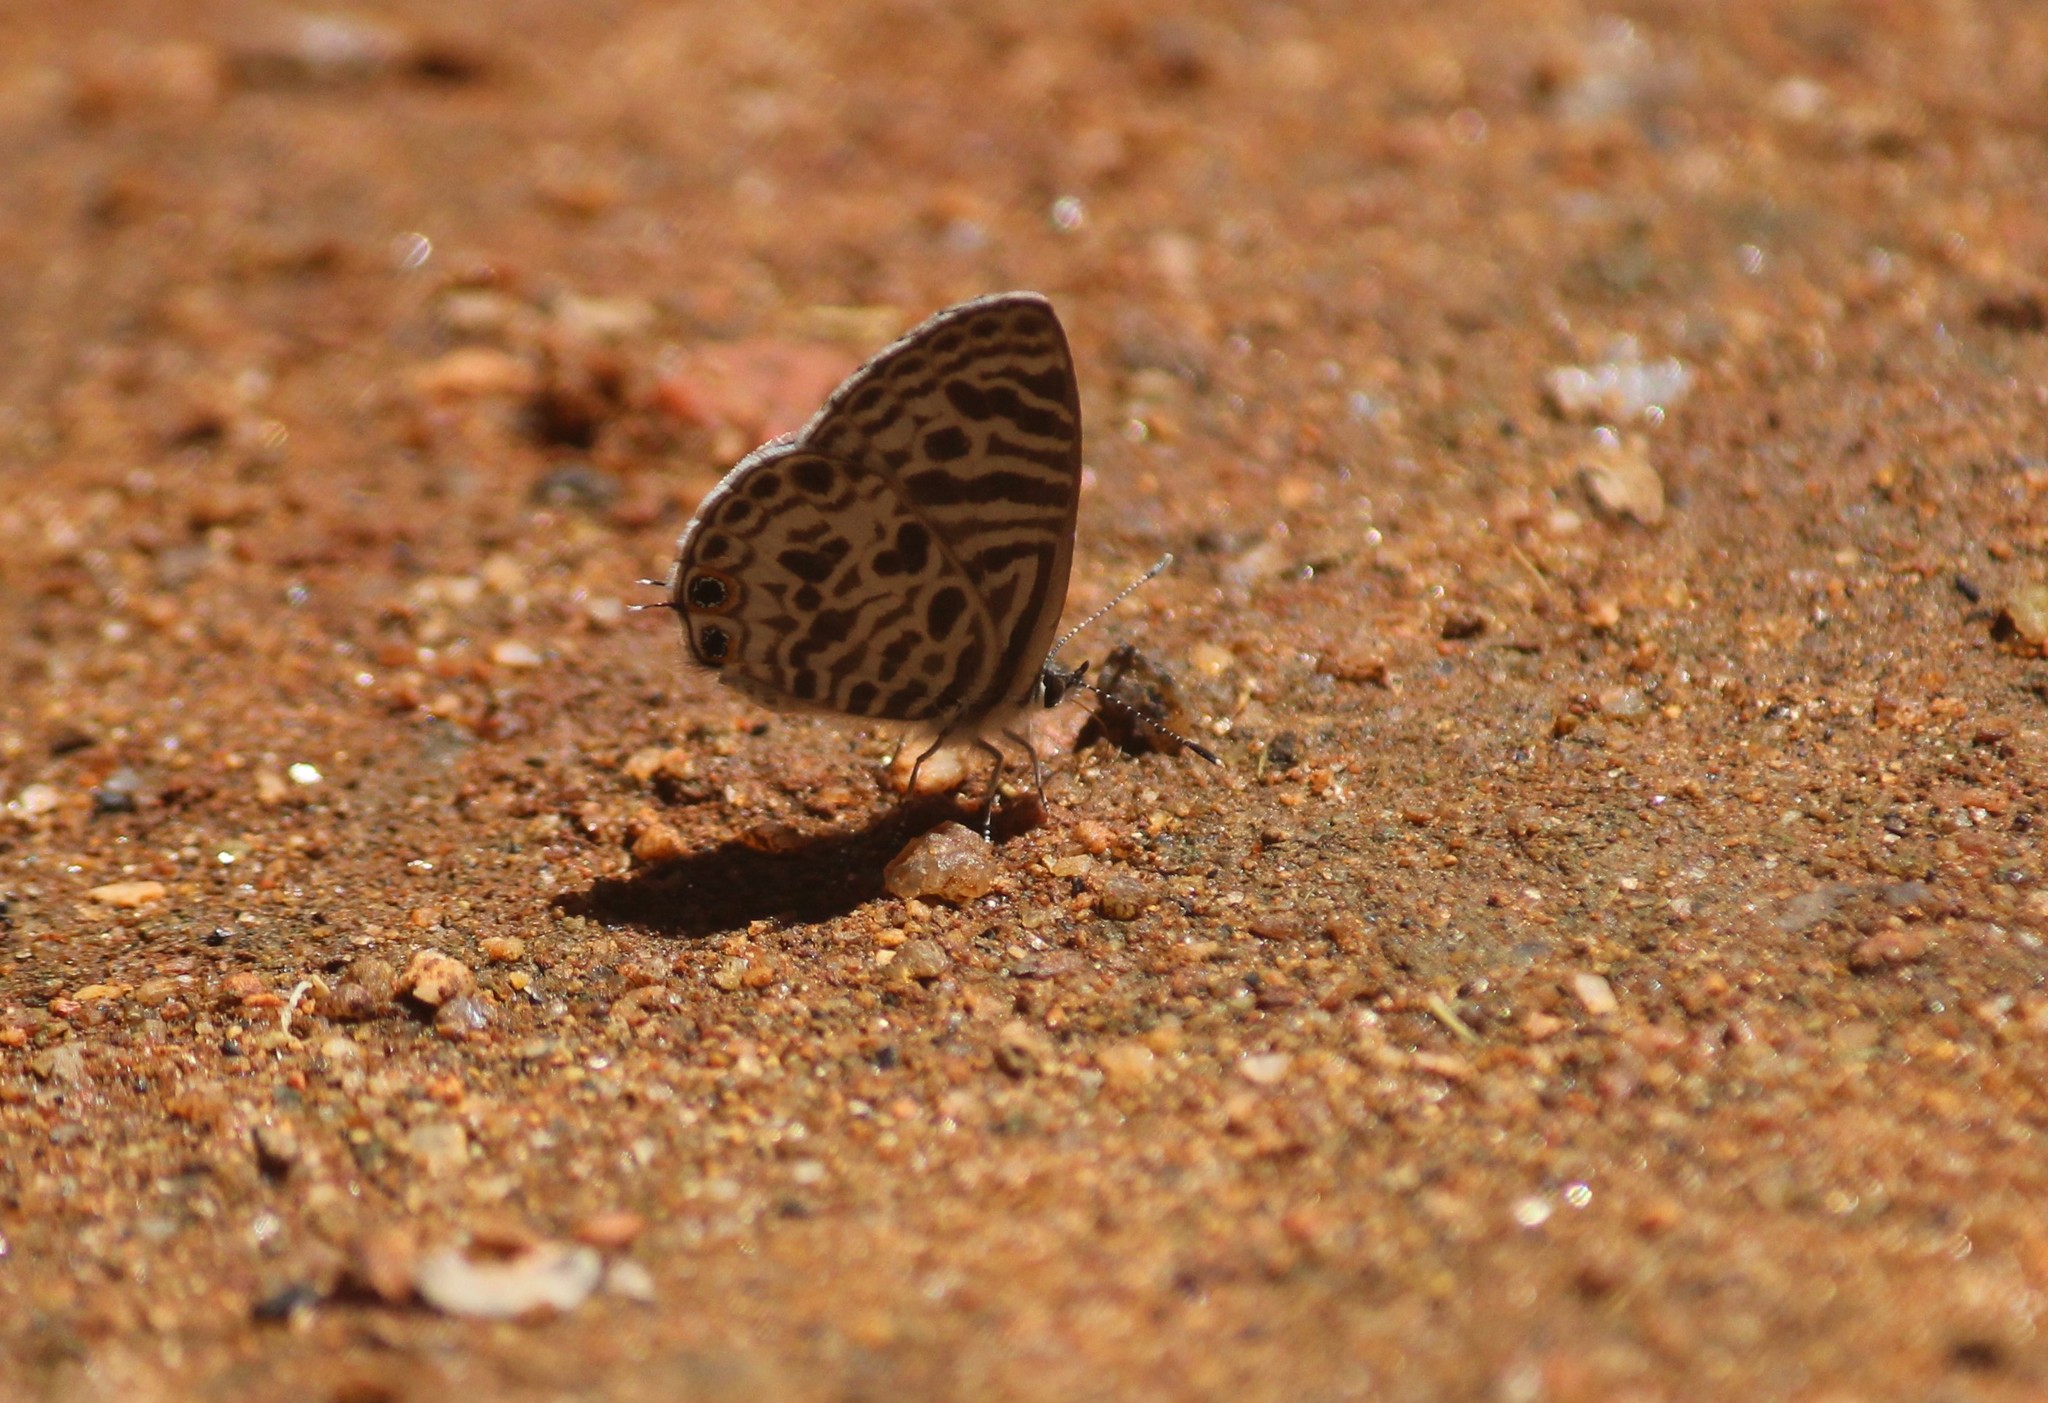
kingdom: Animalia
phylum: Arthropoda
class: Insecta
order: Lepidoptera
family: Lycaenidae
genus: Leptotes
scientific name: Leptotes plinius
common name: Zebra blue
